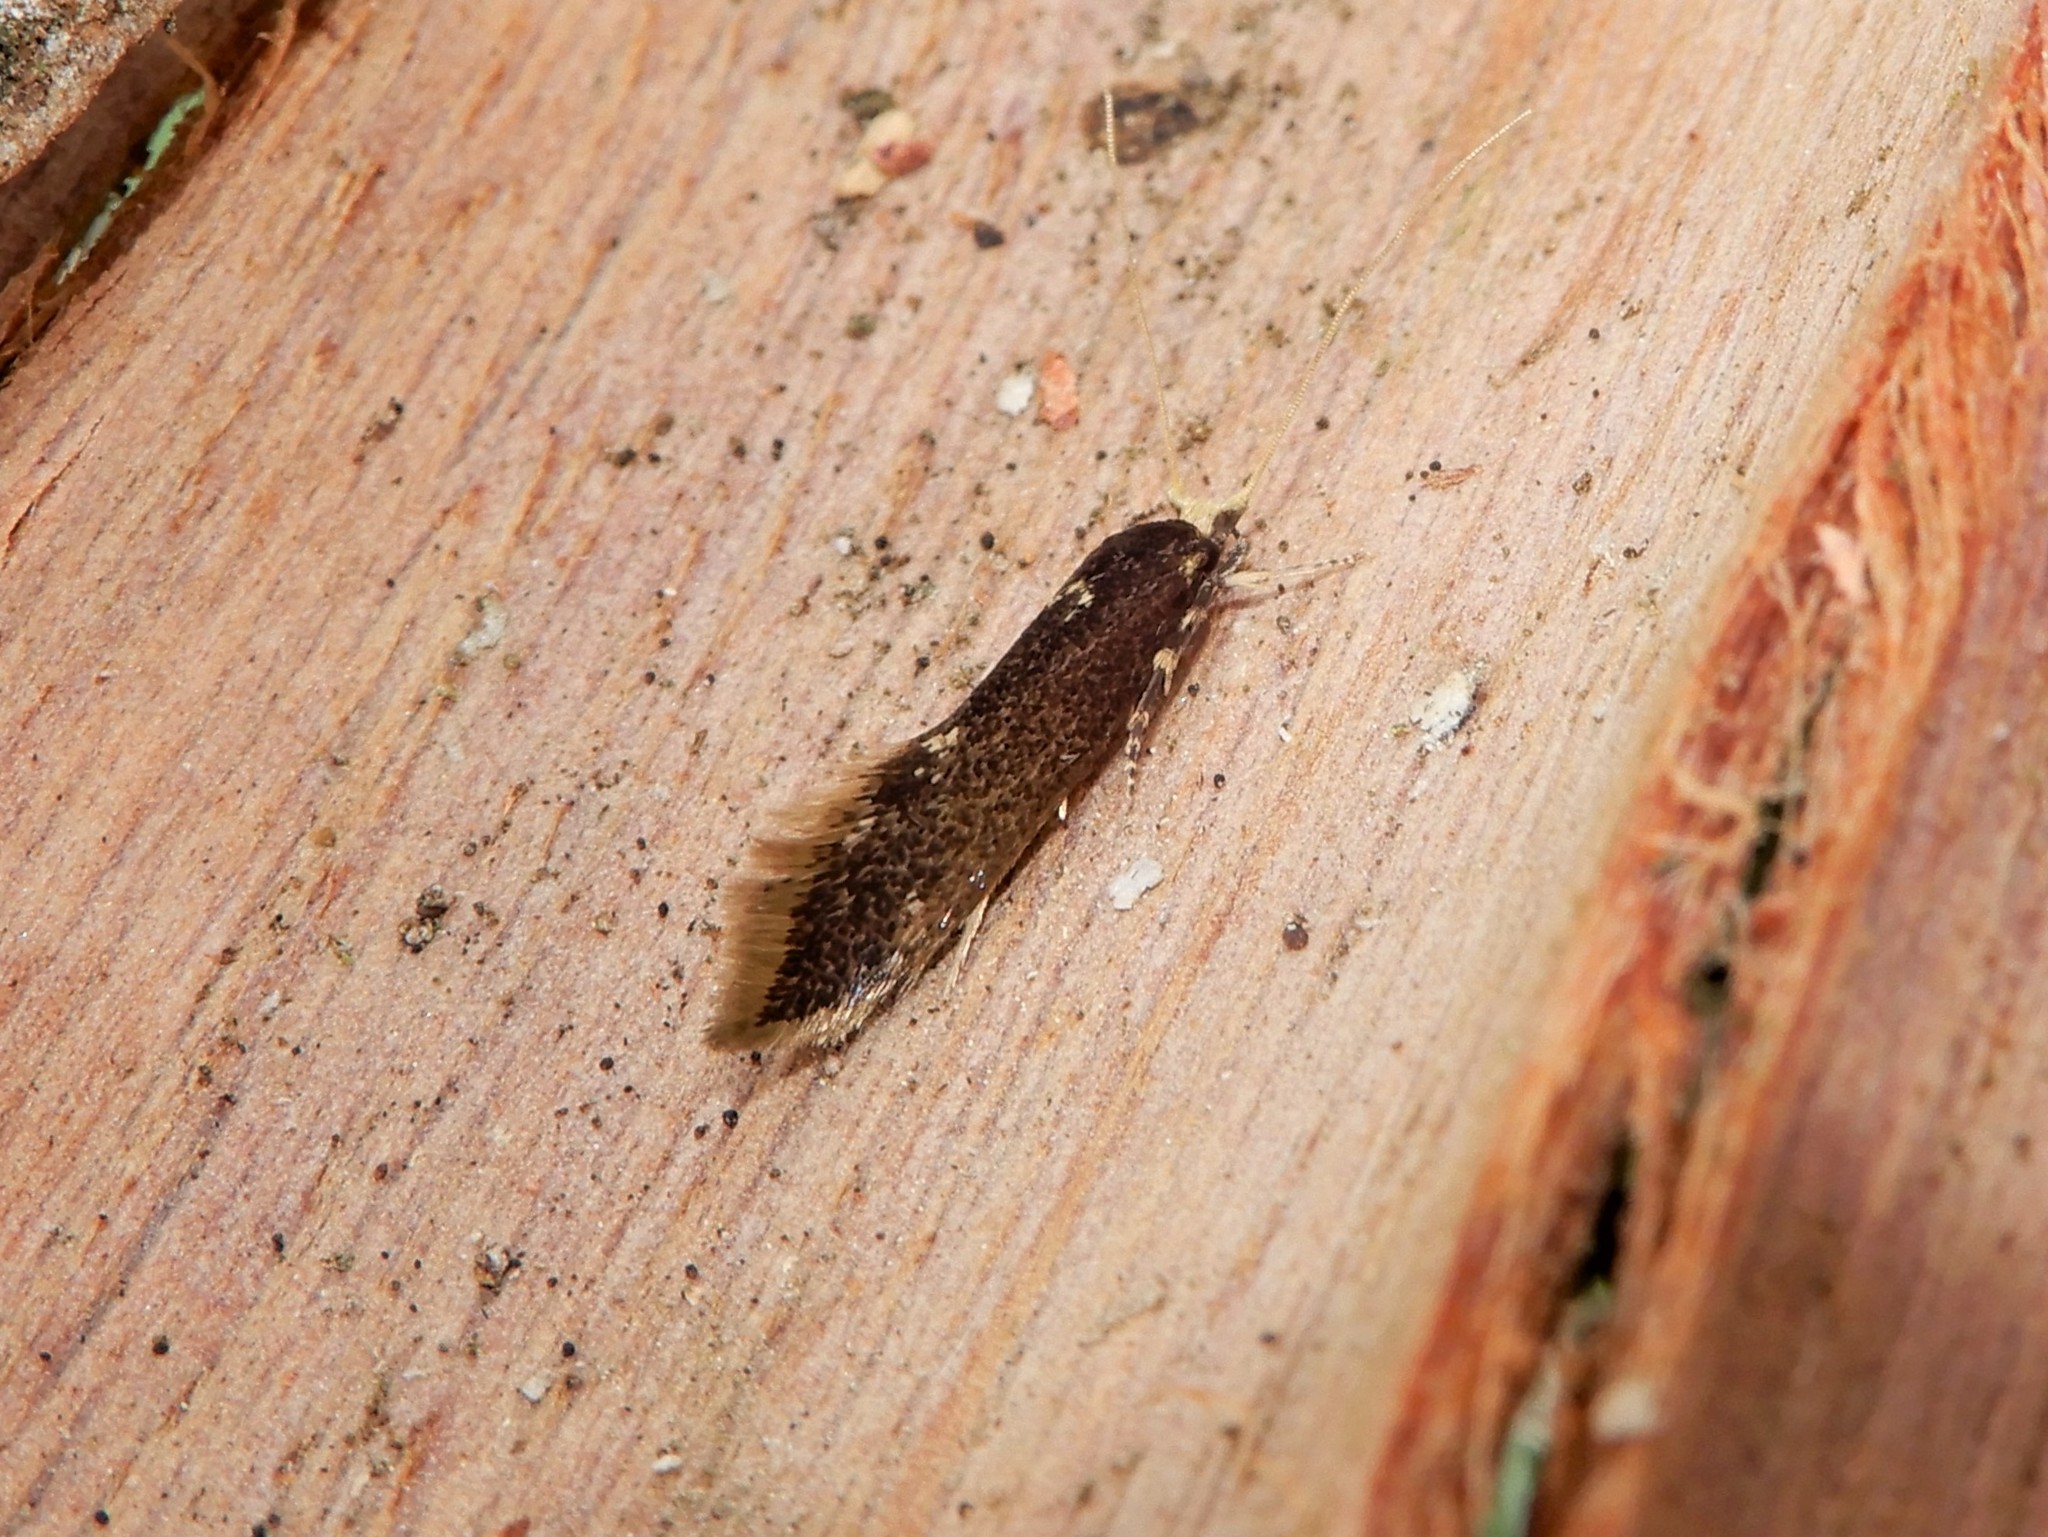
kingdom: Animalia
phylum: Arthropoda
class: Insecta
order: Lepidoptera
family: Tineidae
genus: Opogona
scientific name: Opogona omoscopa
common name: Moth
